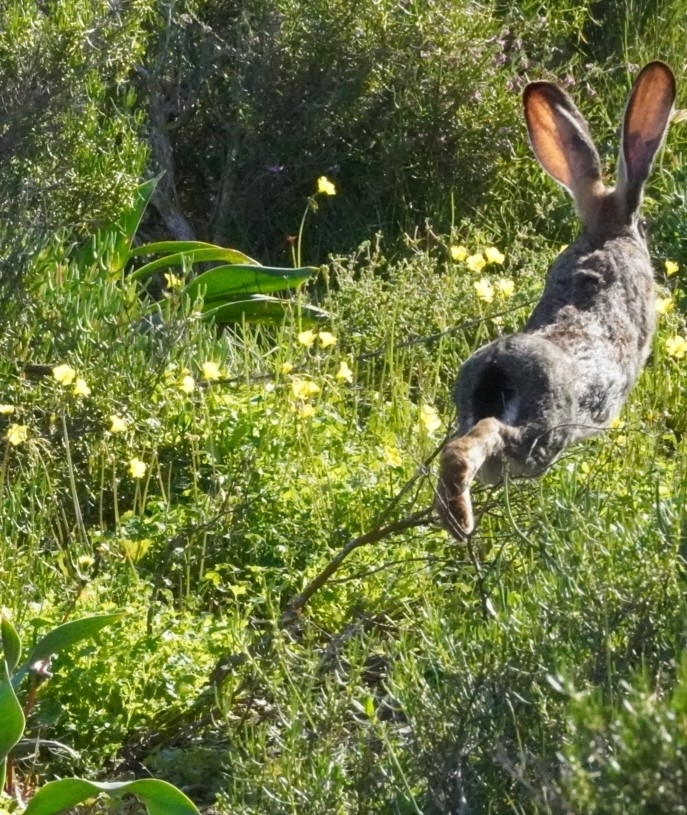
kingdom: Animalia
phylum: Chordata
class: Mammalia
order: Lagomorpha
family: Leporidae
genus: Lepus
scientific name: Lepus capensis
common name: Cape hare
